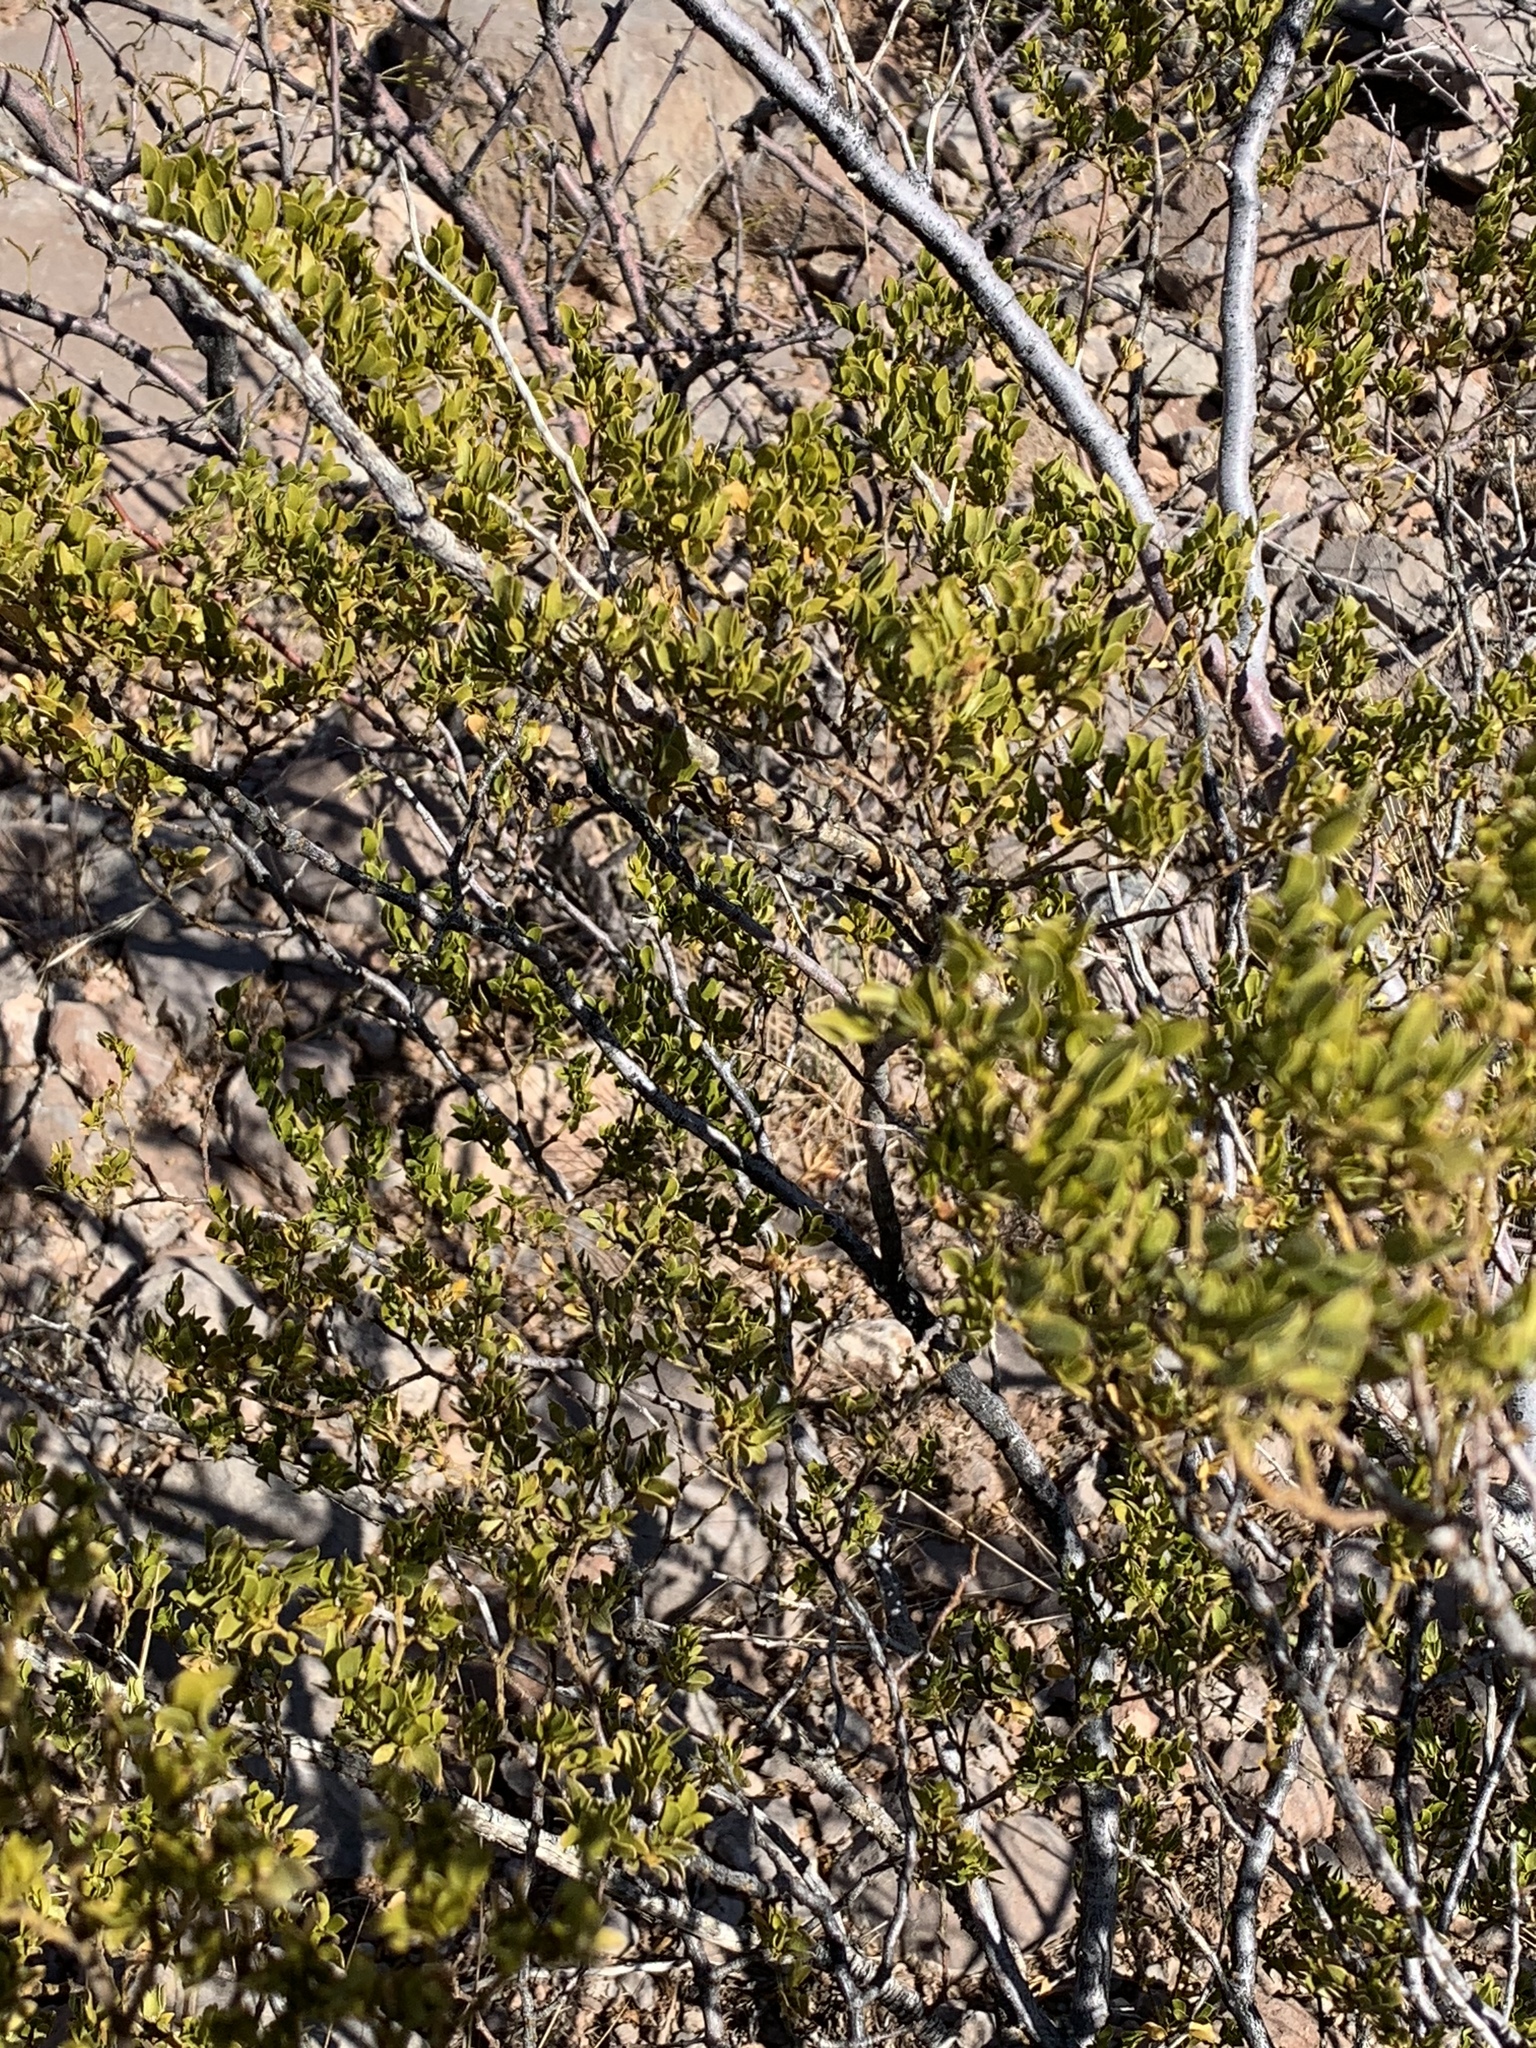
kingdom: Plantae
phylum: Tracheophyta
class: Magnoliopsida
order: Zygophyllales
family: Zygophyllaceae
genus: Larrea
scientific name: Larrea tridentata
